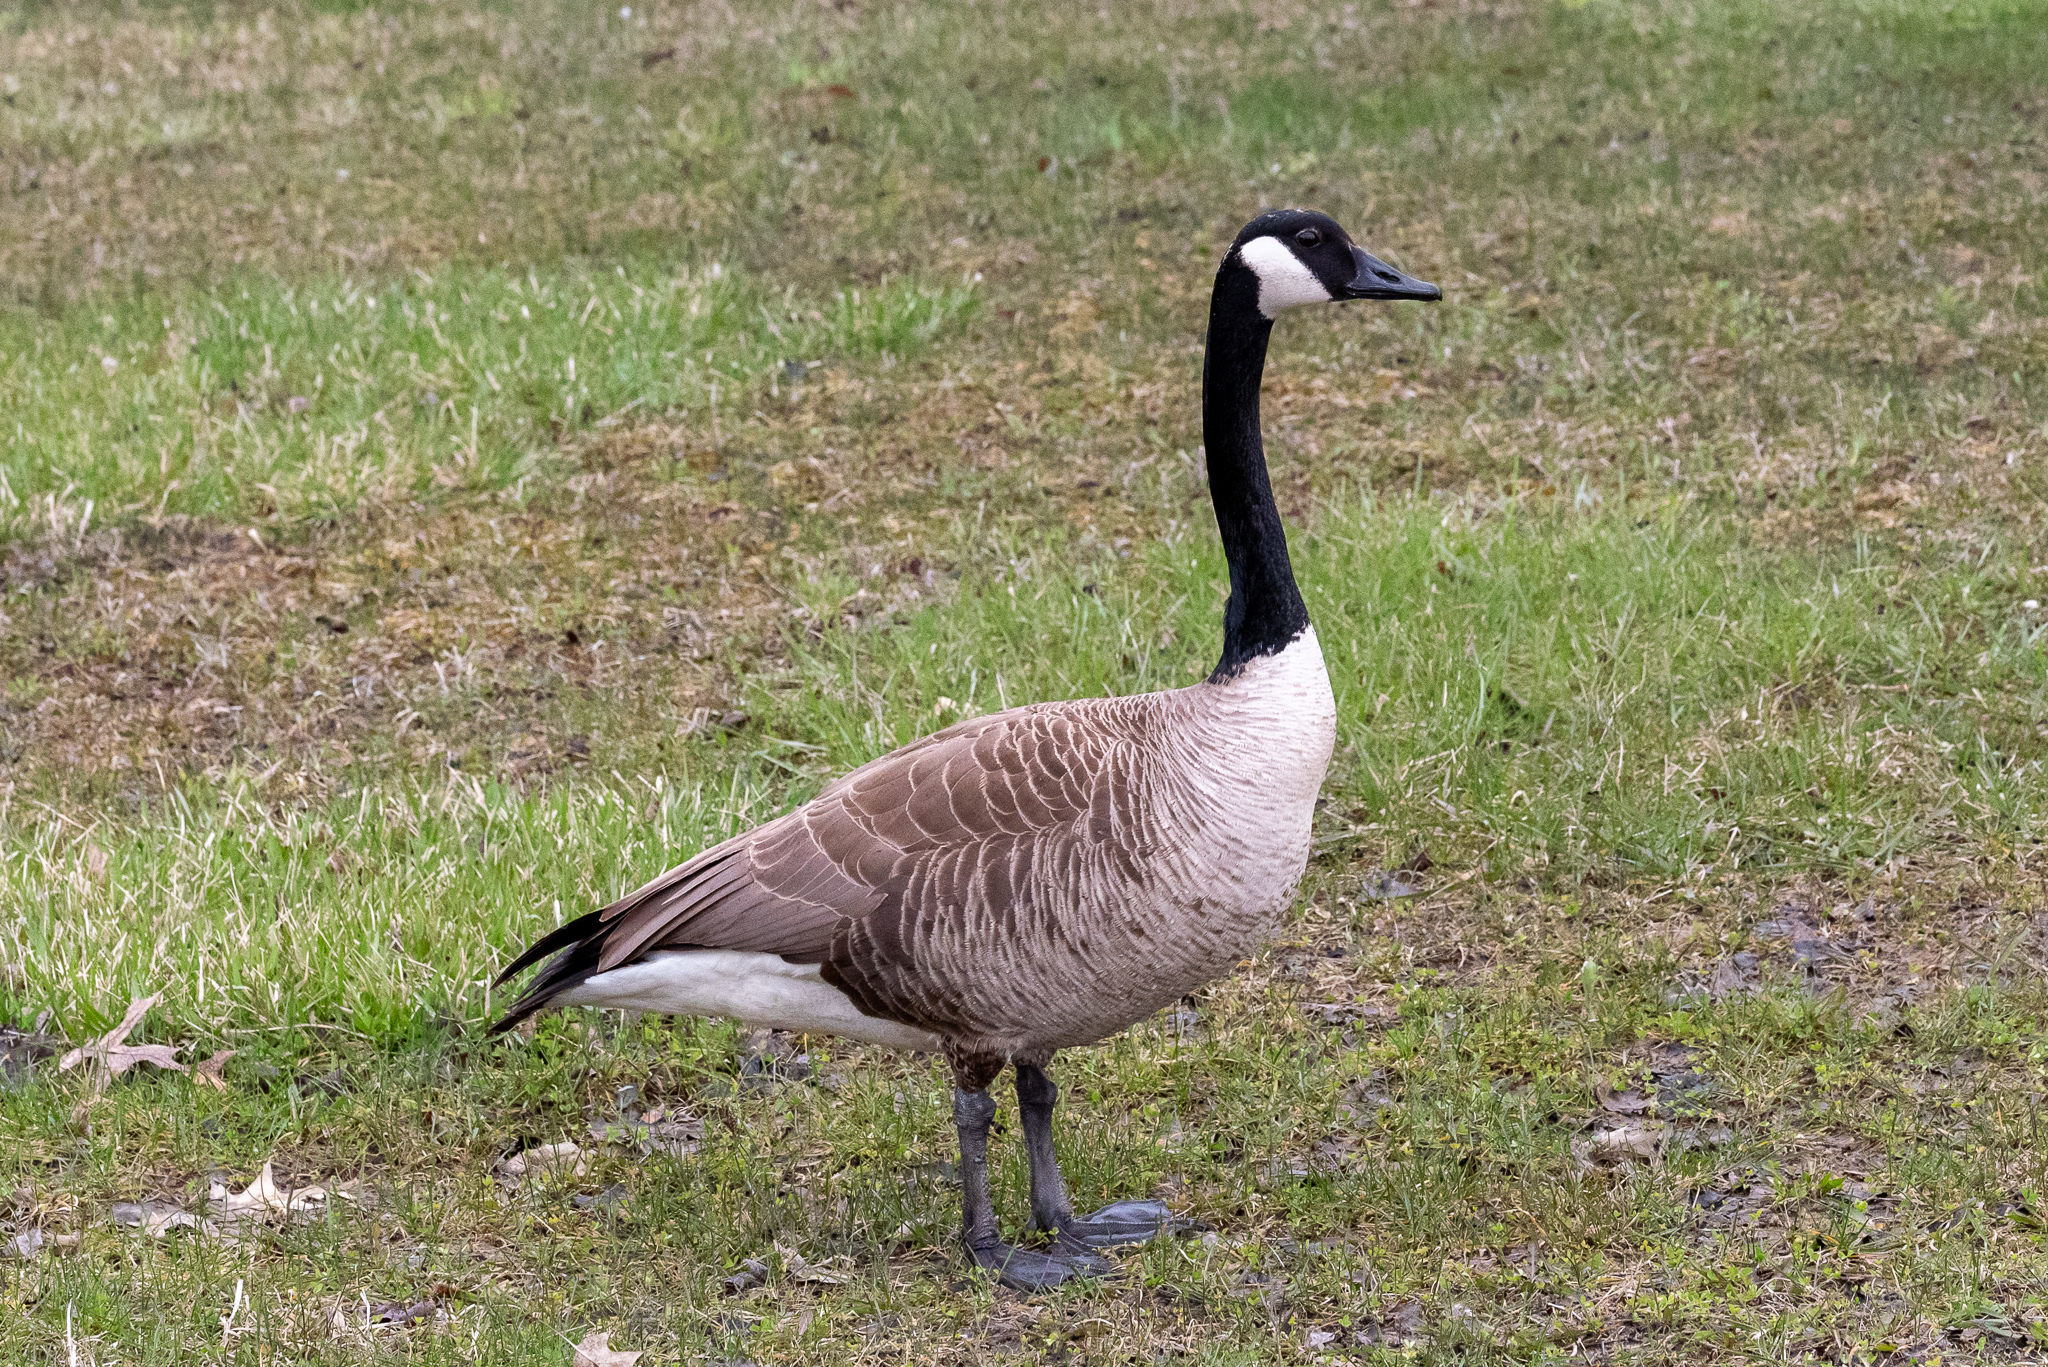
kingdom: Animalia
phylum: Chordata
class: Aves
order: Anseriformes
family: Anatidae
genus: Branta
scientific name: Branta canadensis
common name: Canada goose
